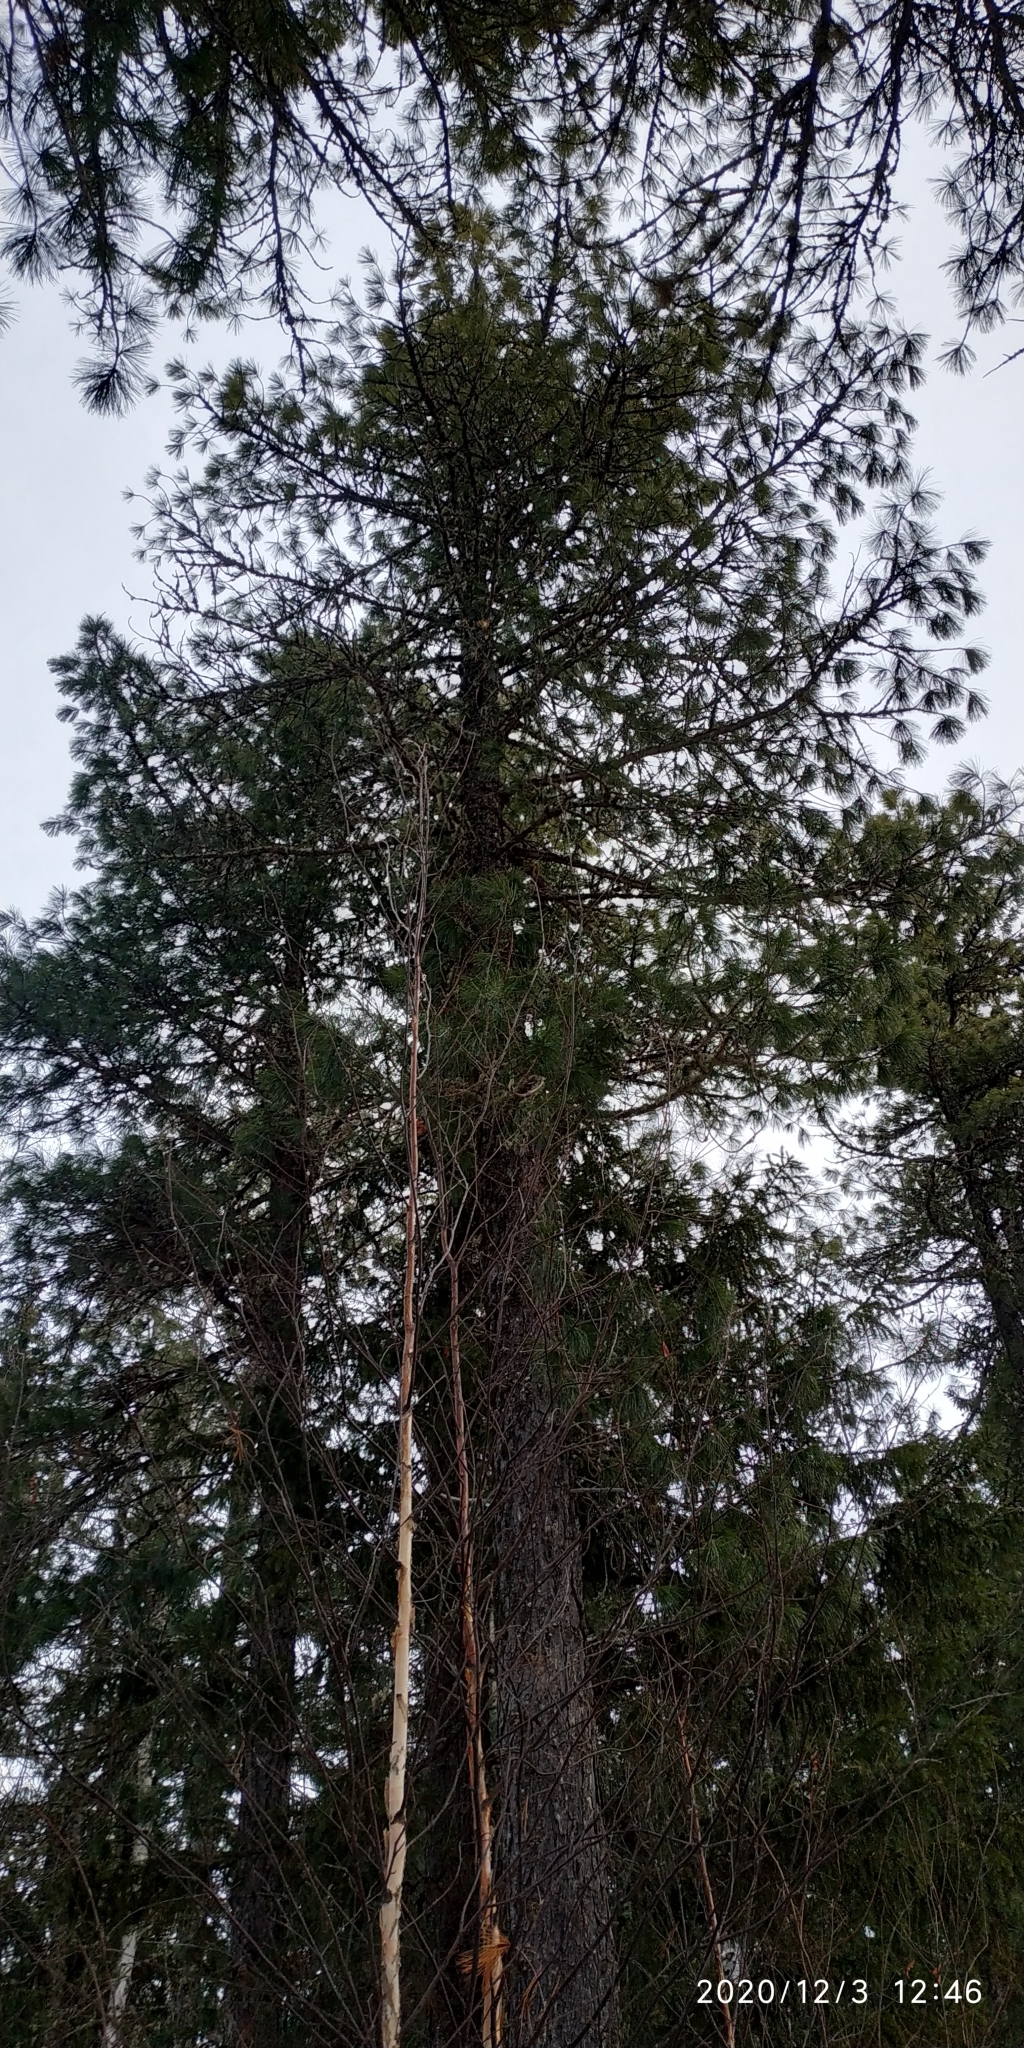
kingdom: Plantae
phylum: Tracheophyta
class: Pinopsida
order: Pinales
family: Pinaceae
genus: Pinus
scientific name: Pinus sibirica
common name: Siberian pine
